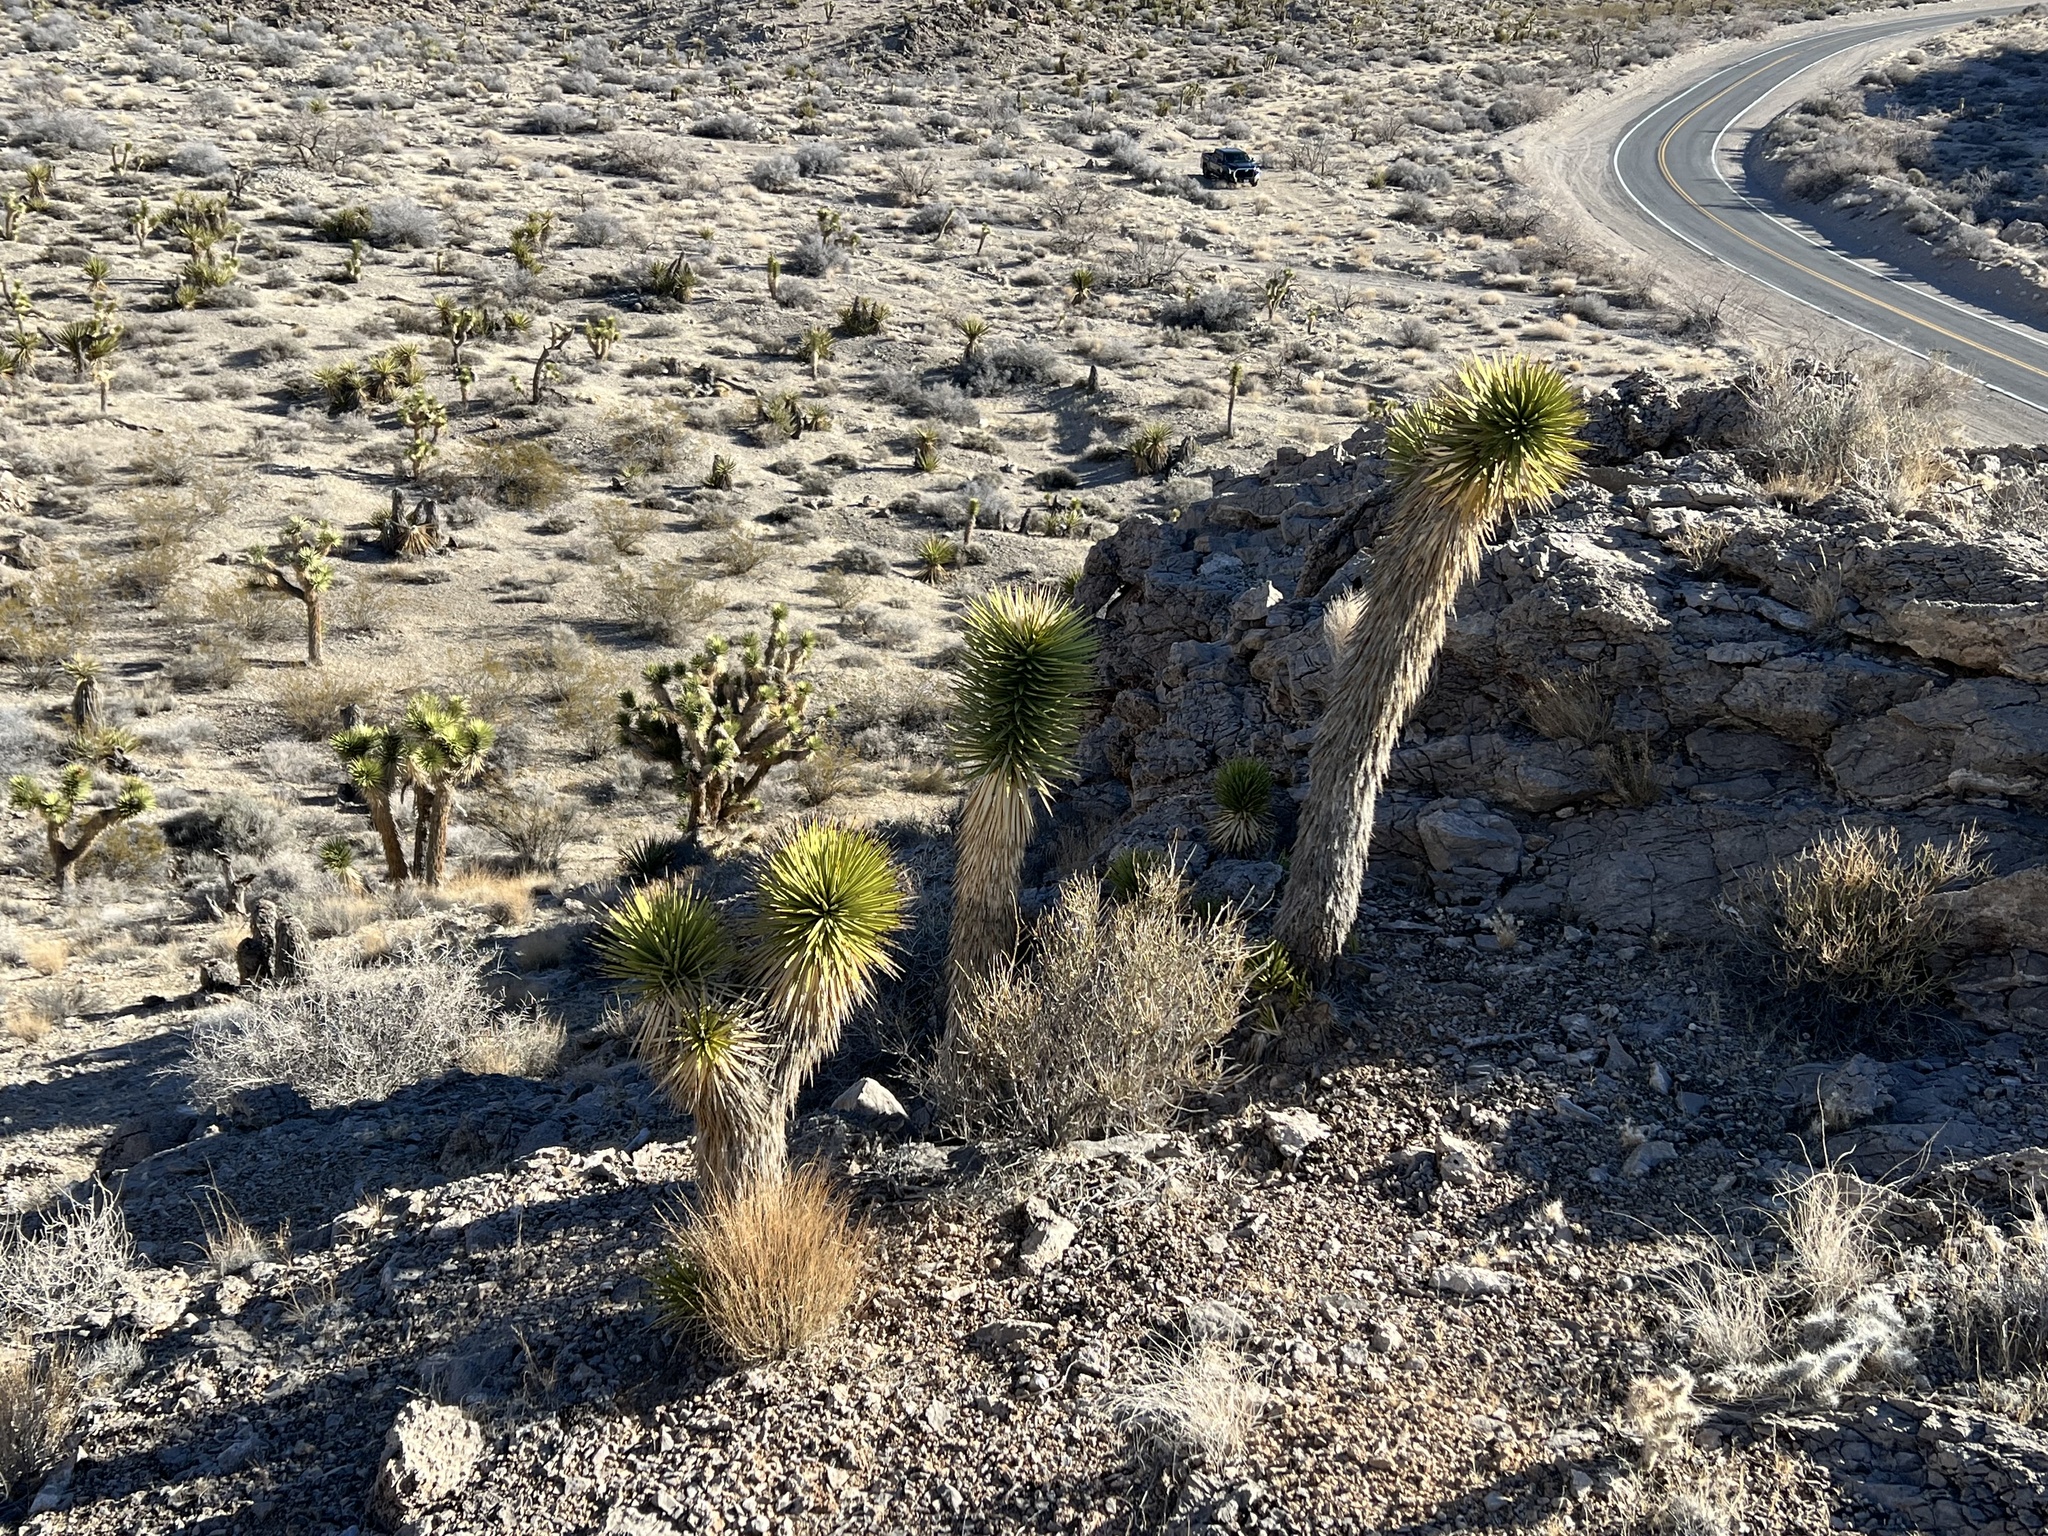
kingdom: Plantae
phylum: Tracheophyta
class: Liliopsida
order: Asparagales
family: Asparagaceae
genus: Yucca
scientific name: Yucca brevifolia
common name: Joshua tree
